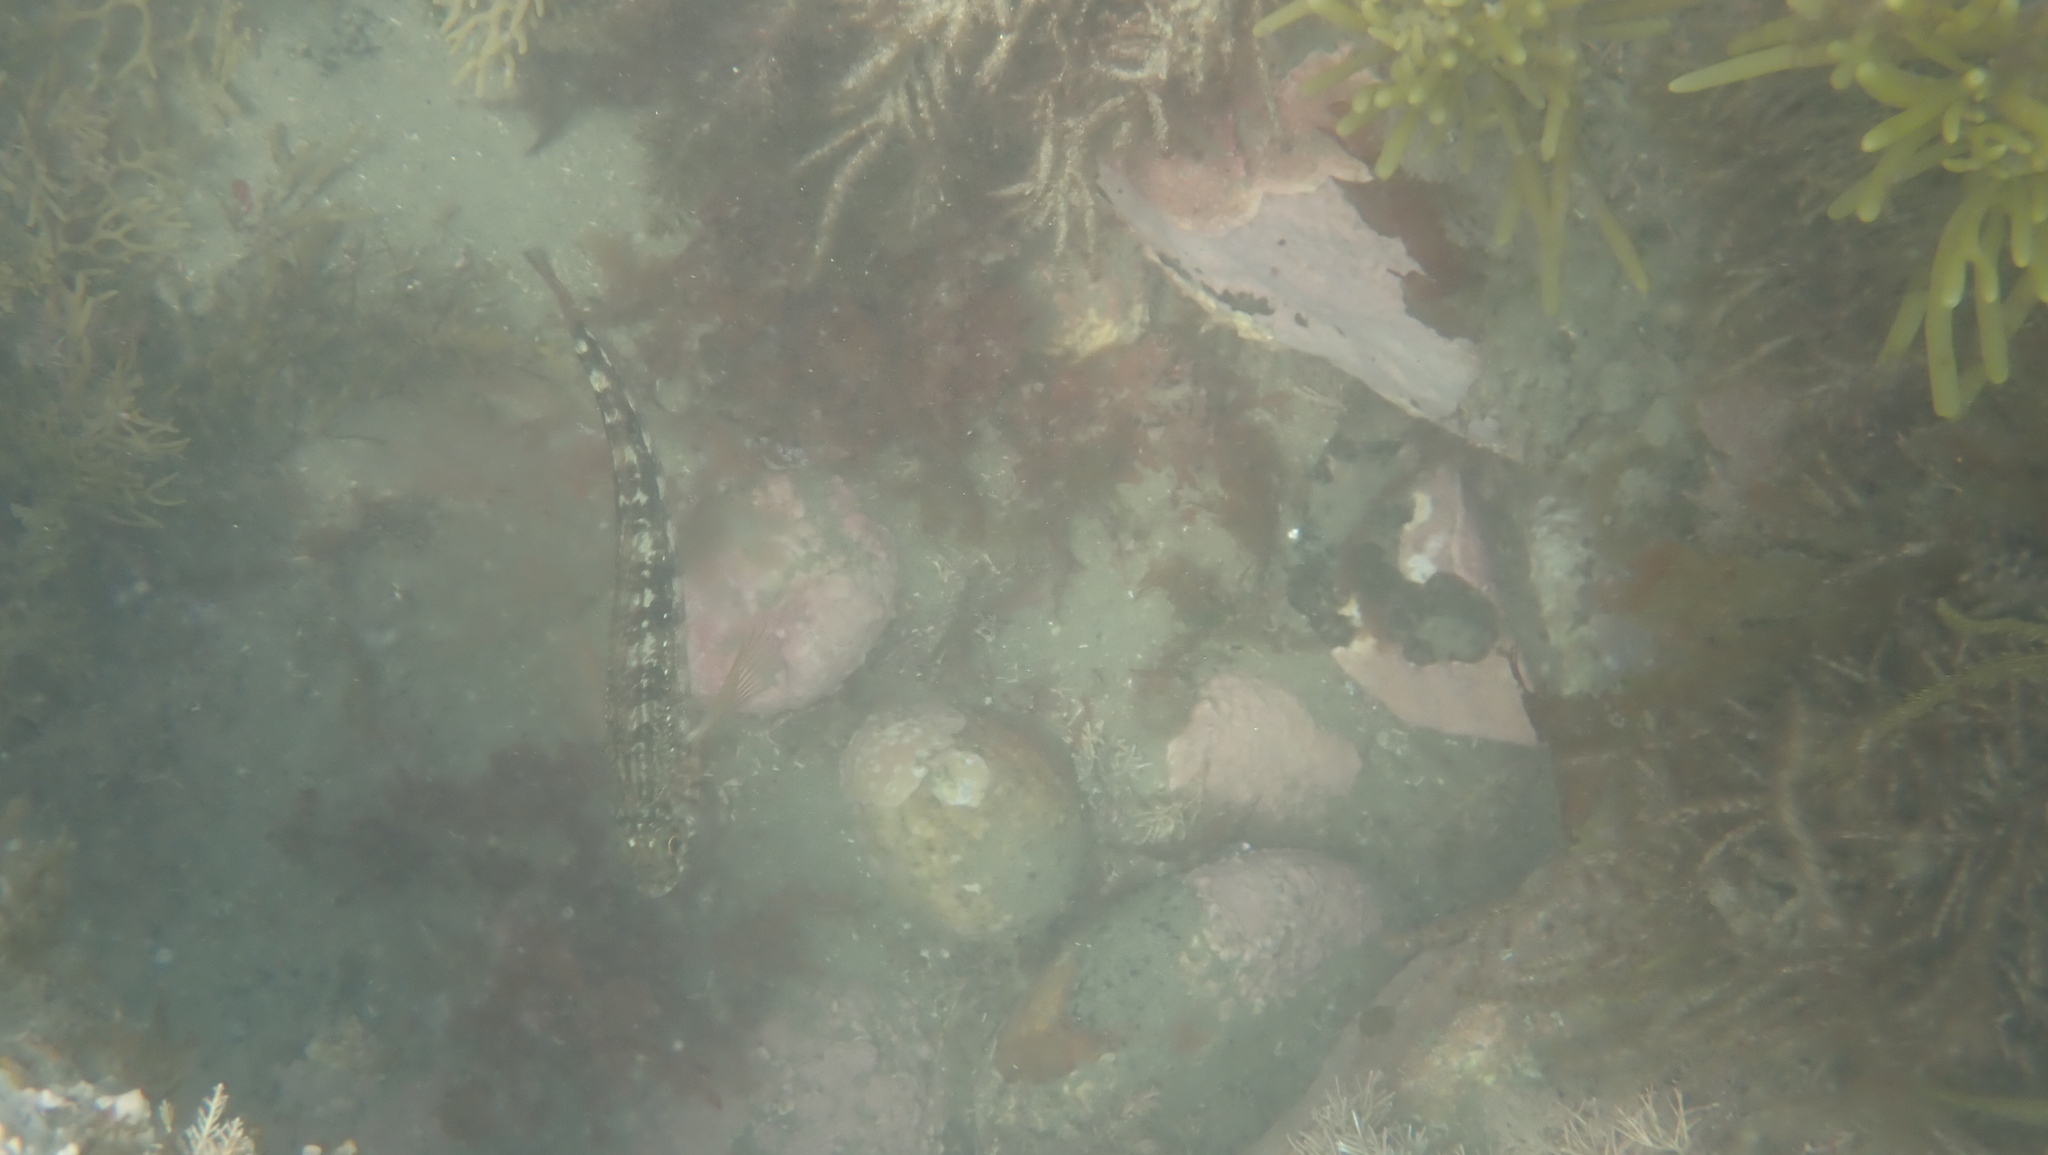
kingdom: Animalia
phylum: Chordata
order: Perciformes
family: Tripterygiidae
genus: Forsterygion
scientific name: Forsterygion varium
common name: Variable triplefin
